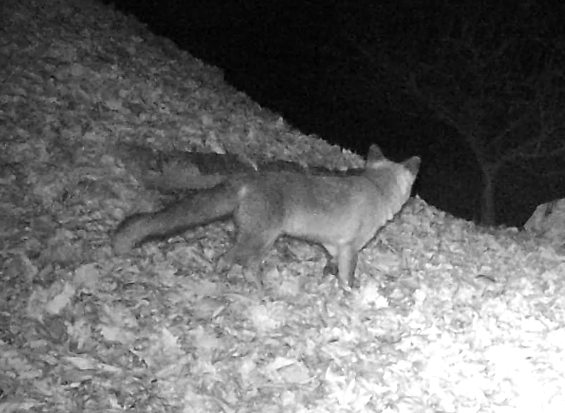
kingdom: Animalia
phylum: Chordata
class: Mammalia
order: Carnivora
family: Canidae
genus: Vulpes
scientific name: Vulpes vulpes
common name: Red fox
